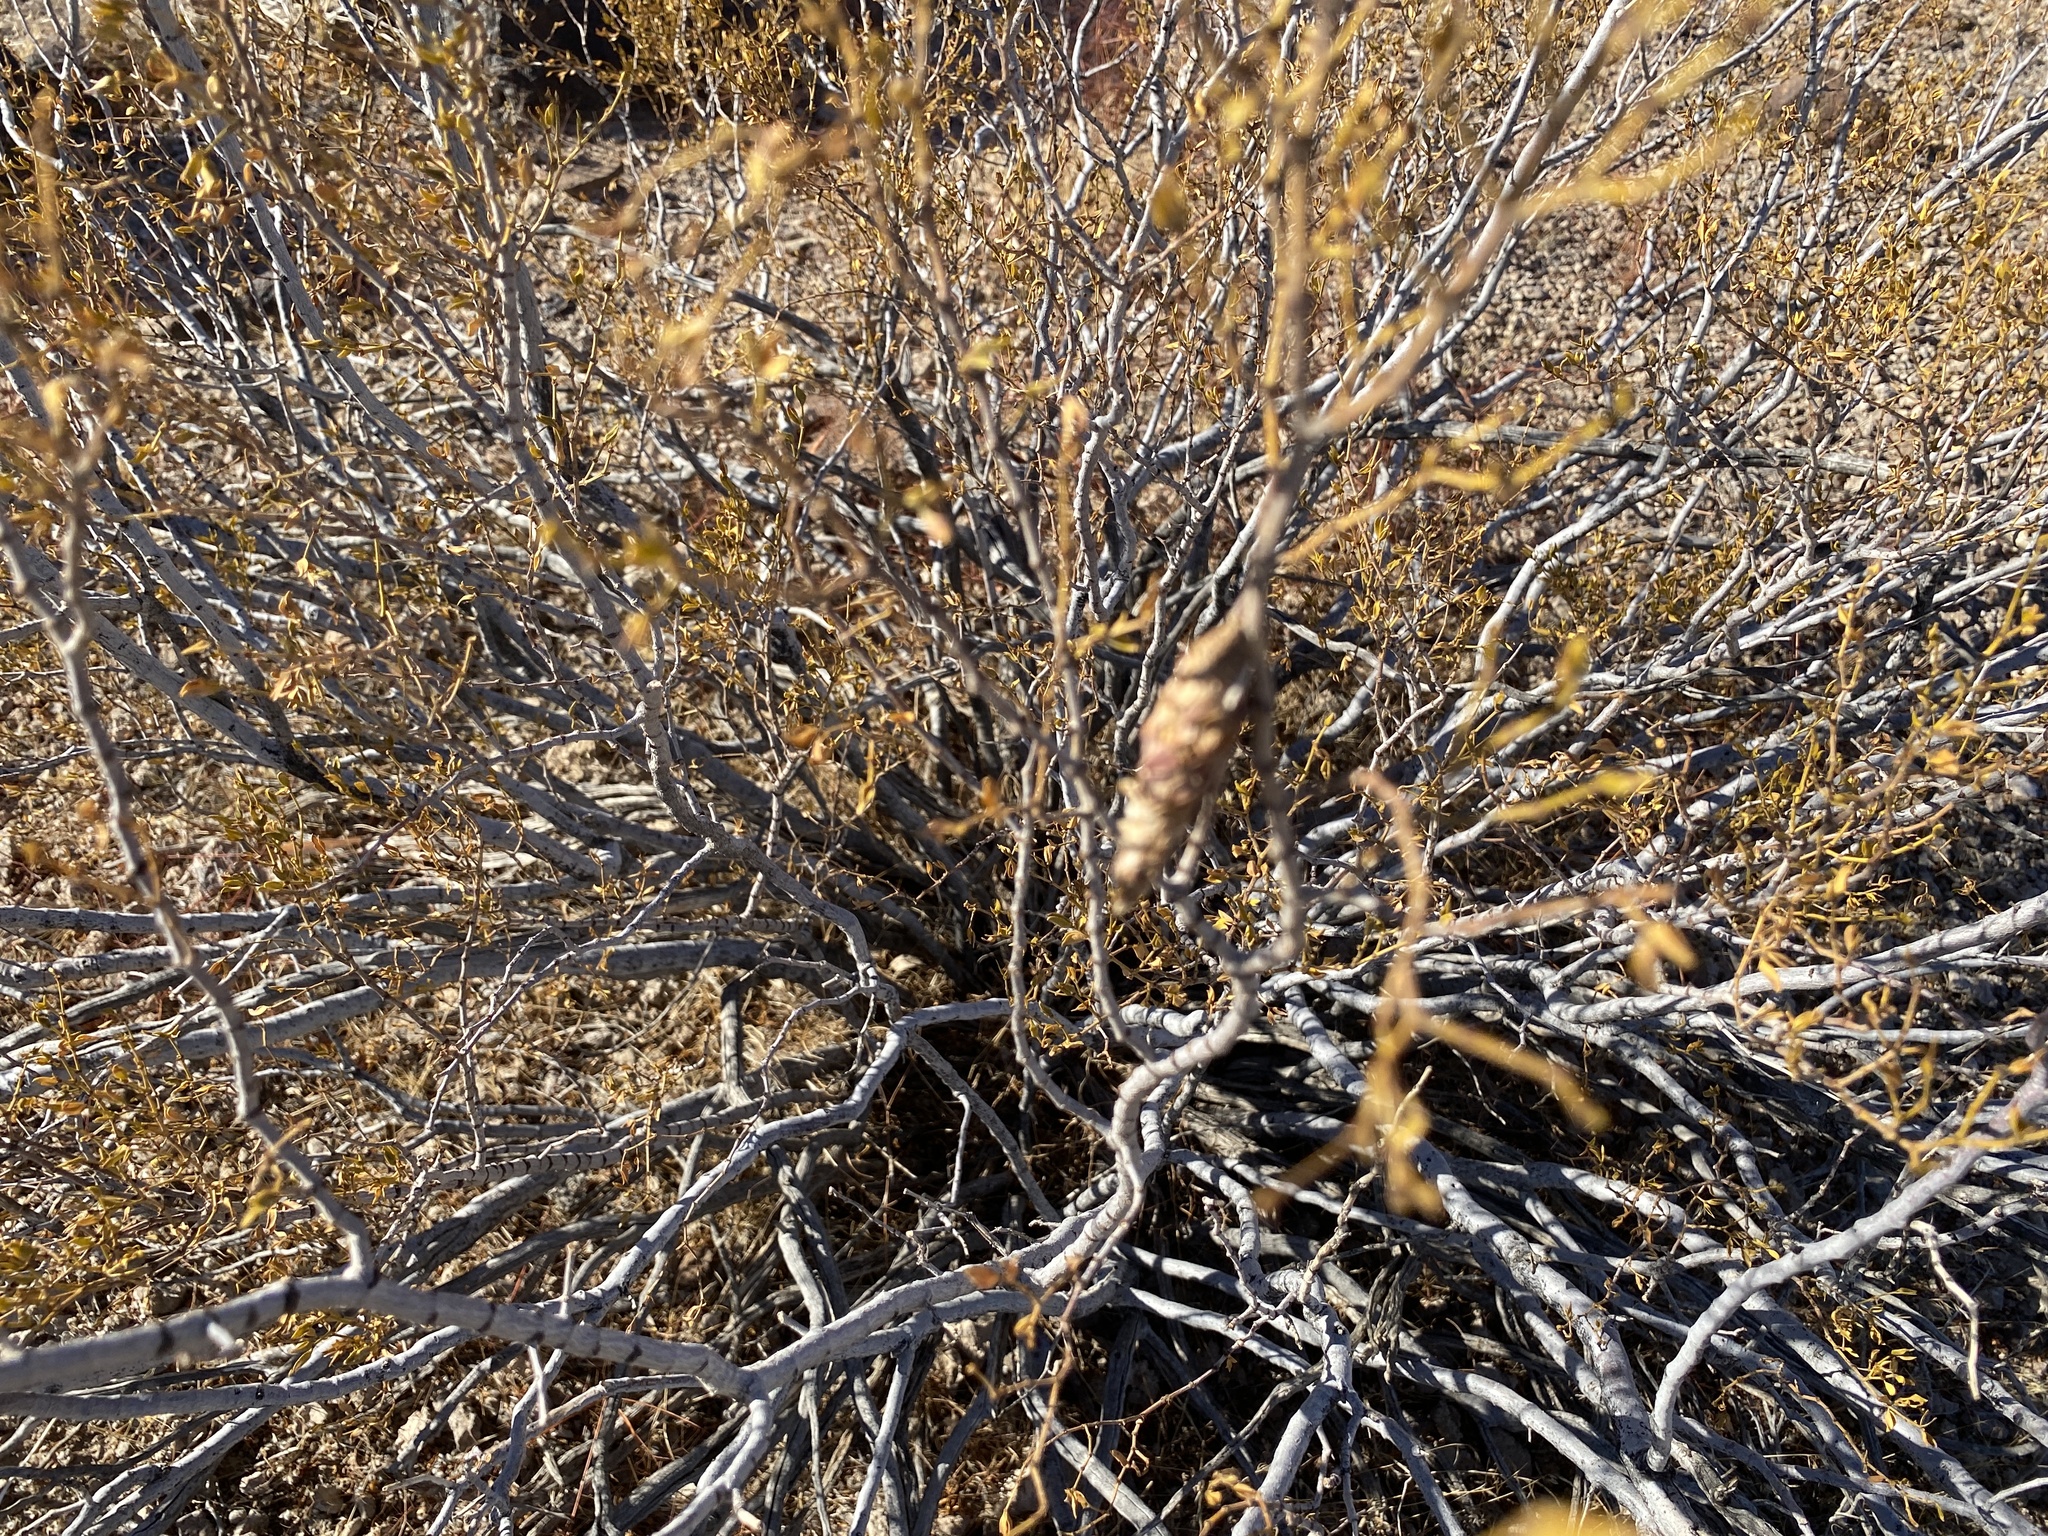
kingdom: Animalia
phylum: Arthropoda
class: Insecta
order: Lepidoptera
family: Psychidae
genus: Thyridopteryx
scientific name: Thyridopteryx meadii
